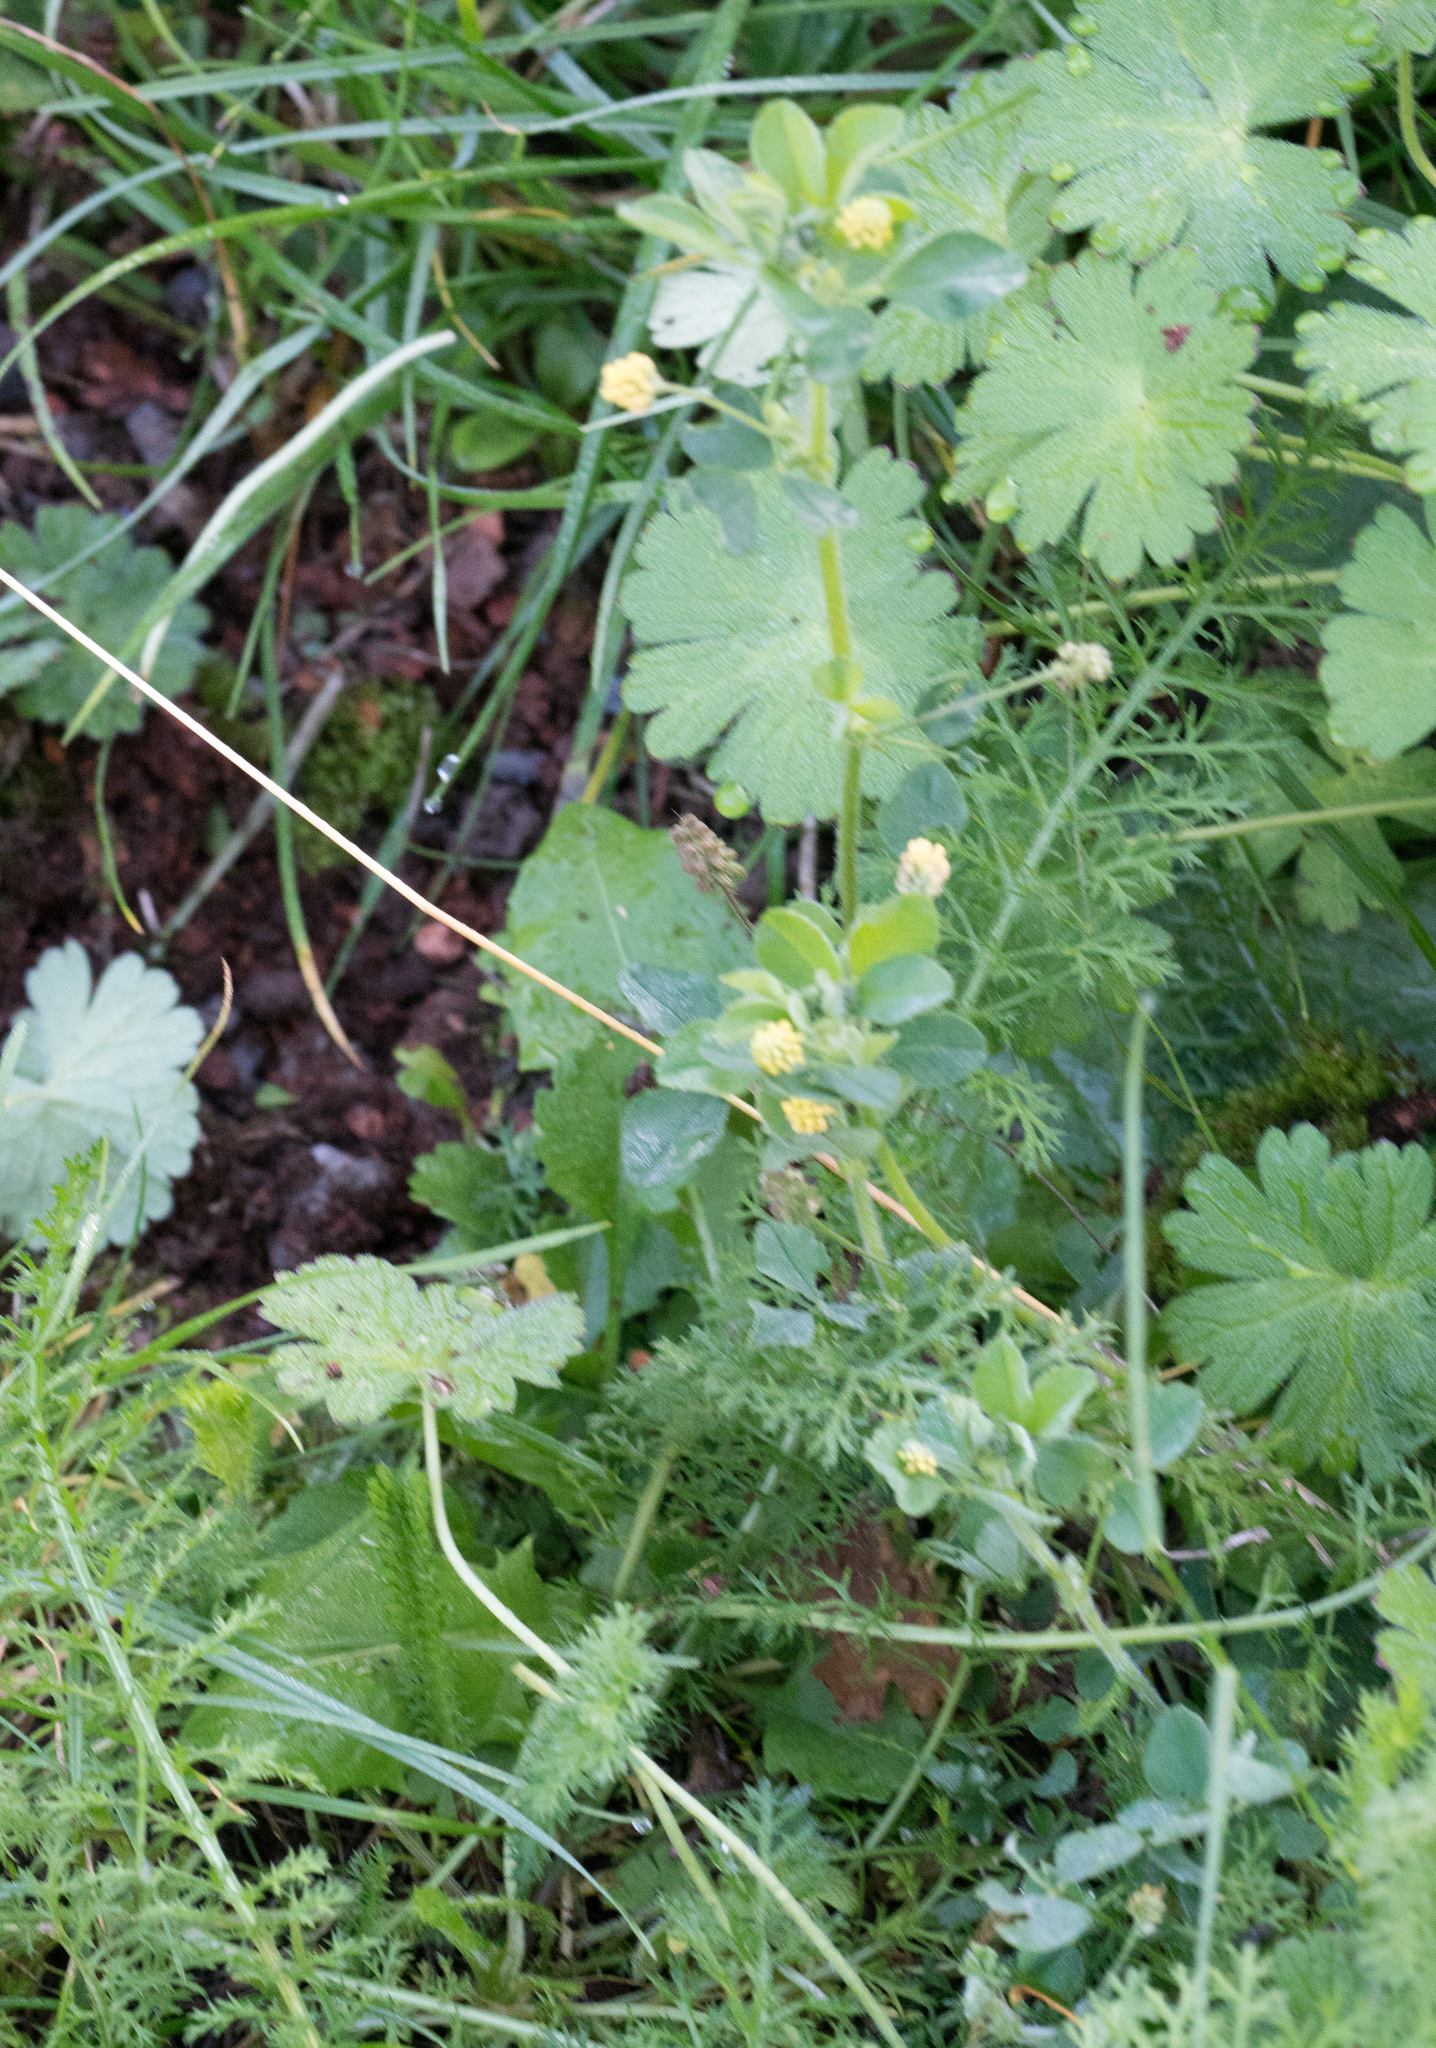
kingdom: Plantae
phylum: Tracheophyta
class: Magnoliopsida
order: Fabales
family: Fabaceae
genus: Medicago
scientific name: Medicago lupulina
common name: Black medick
